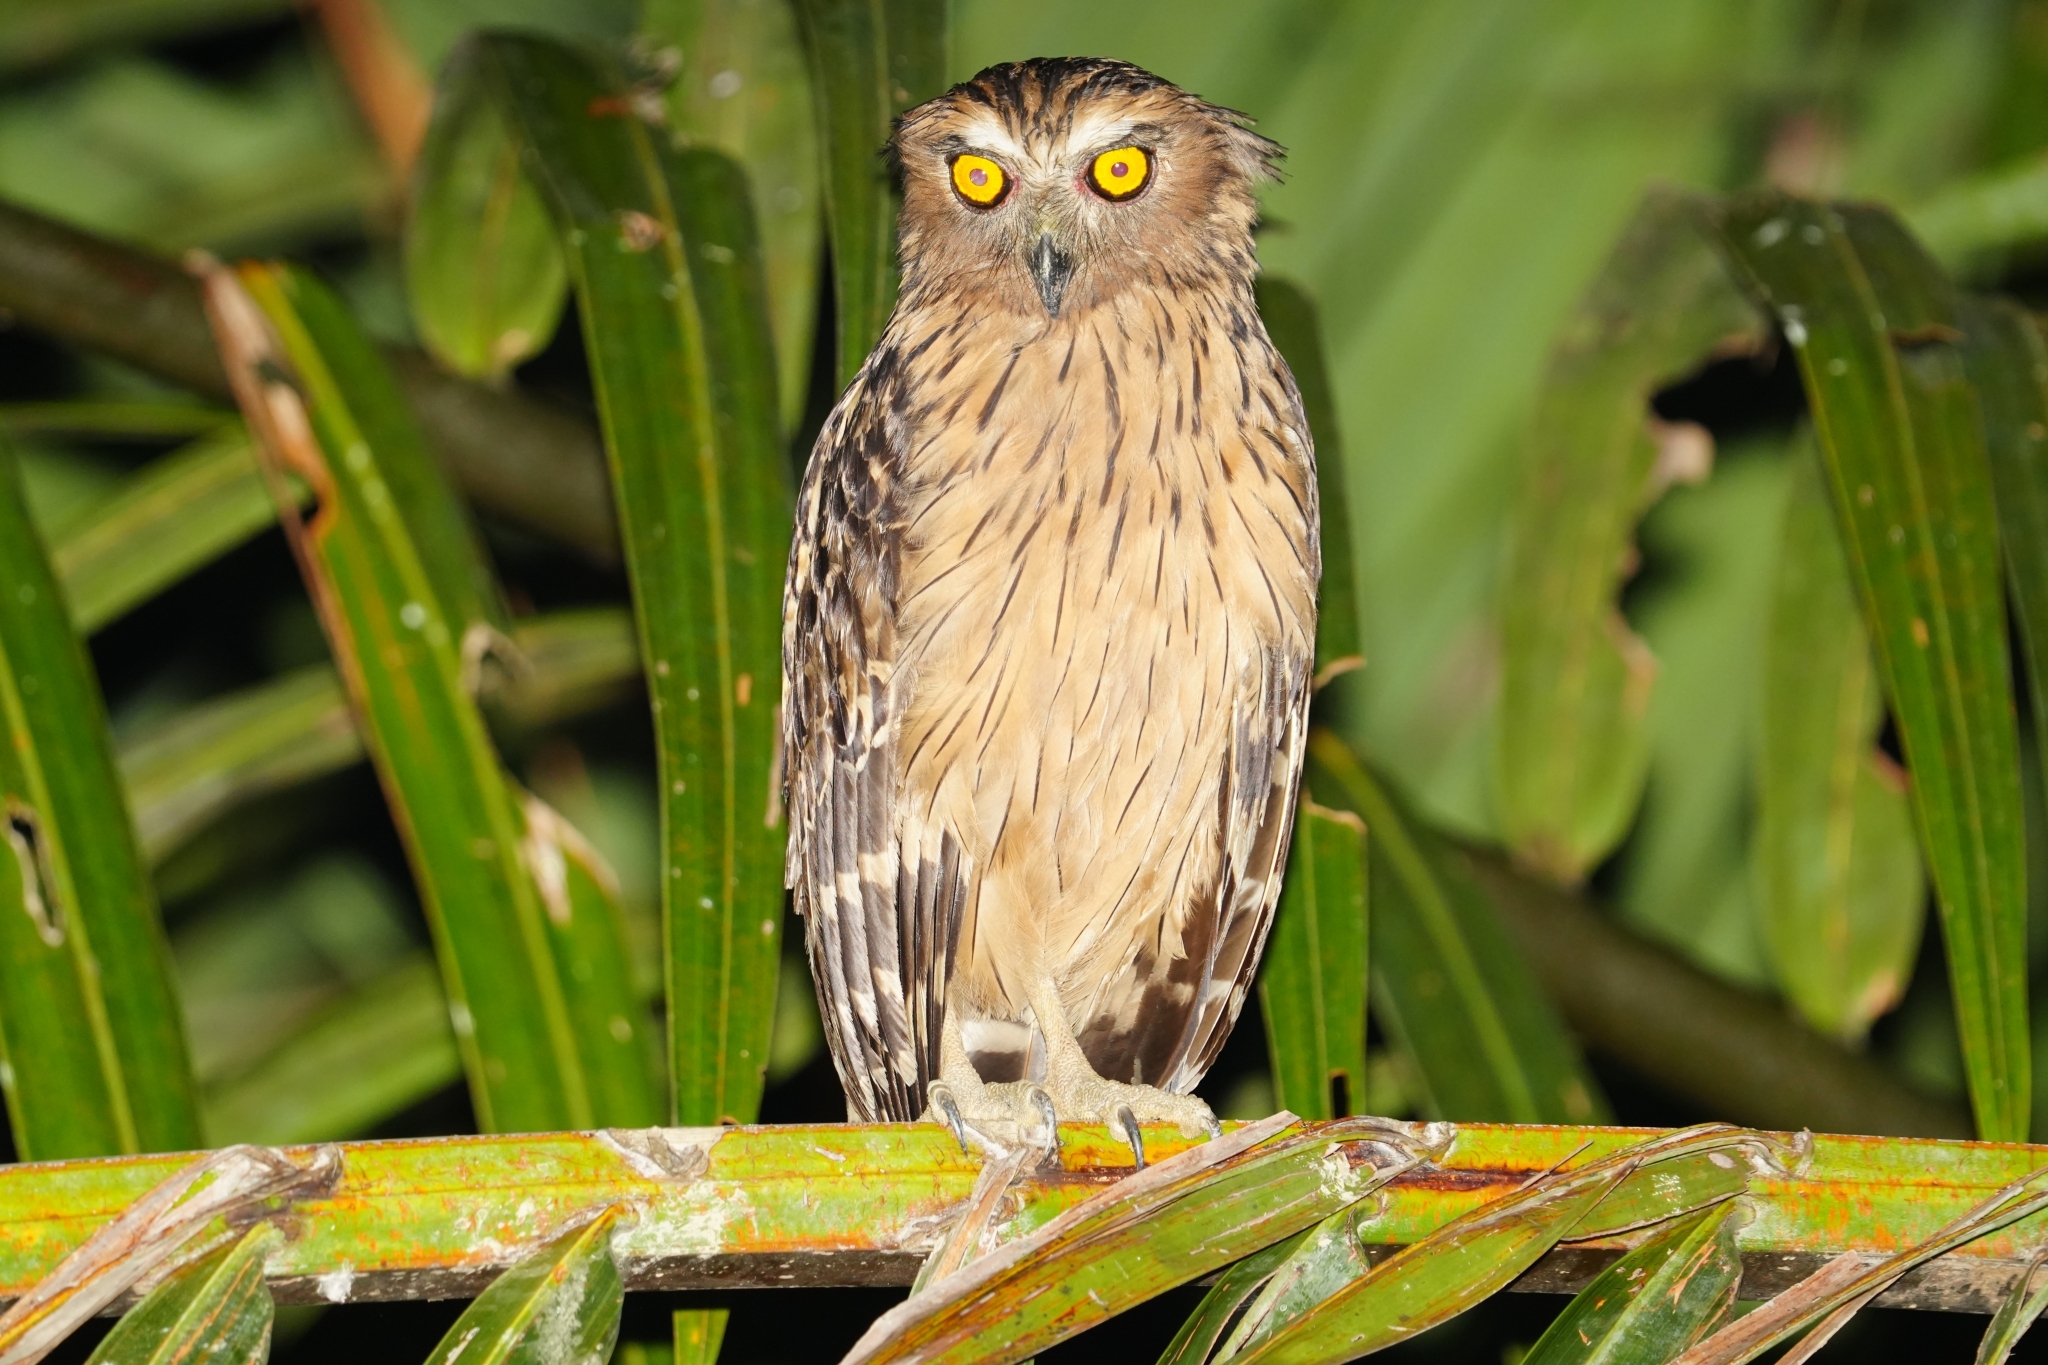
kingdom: Animalia
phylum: Chordata
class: Aves
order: Strigiformes
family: Strigidae
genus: Ketupa
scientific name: Ketupa ketupu
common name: Buffy fish-owl
